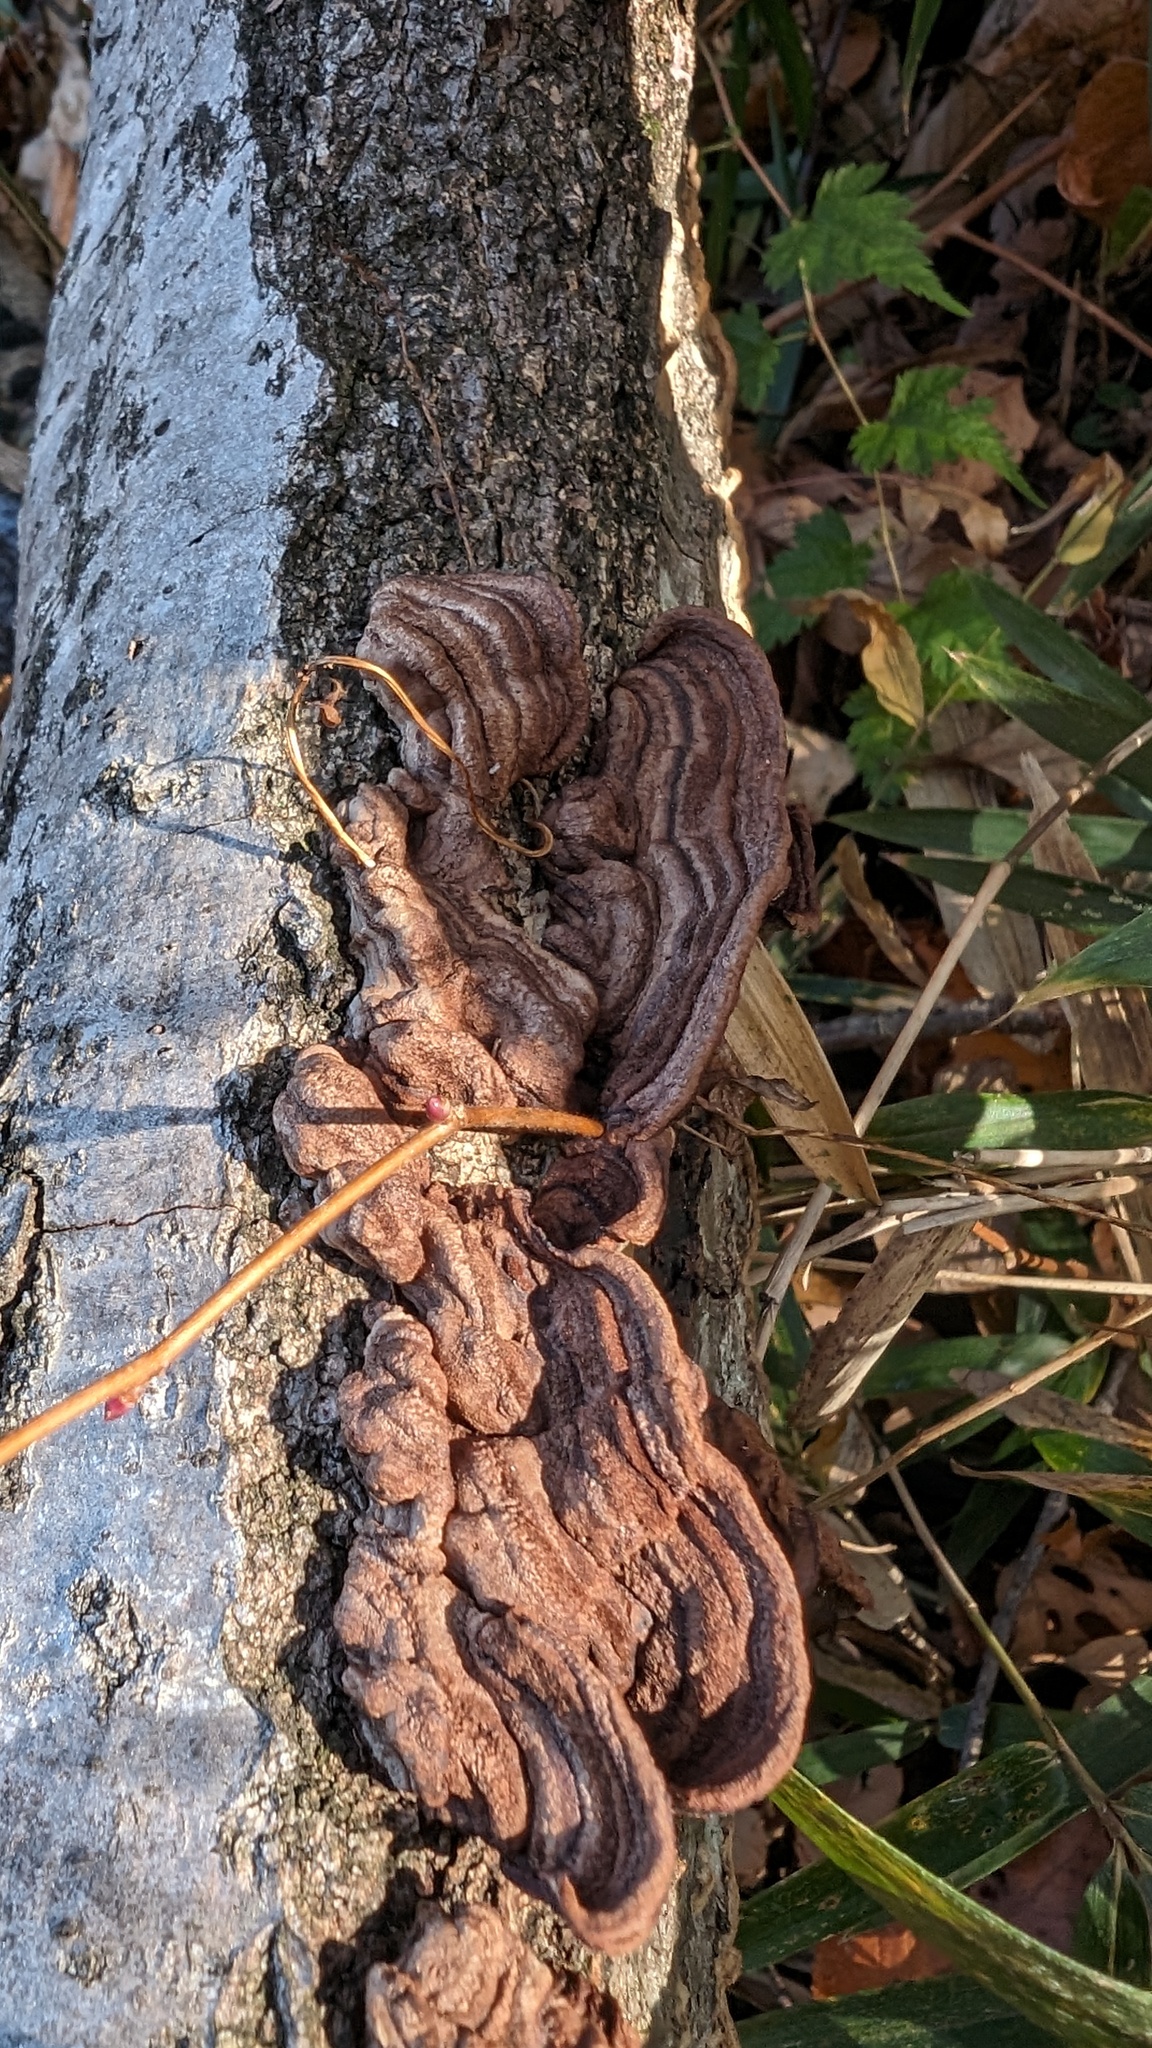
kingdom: Fungi
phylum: Basidiomycota
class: Agaricomycetes
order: Corticiales
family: Punctulariaceae
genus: Punctularia
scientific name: Punctularia strigosozonata
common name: White-rot fungus
